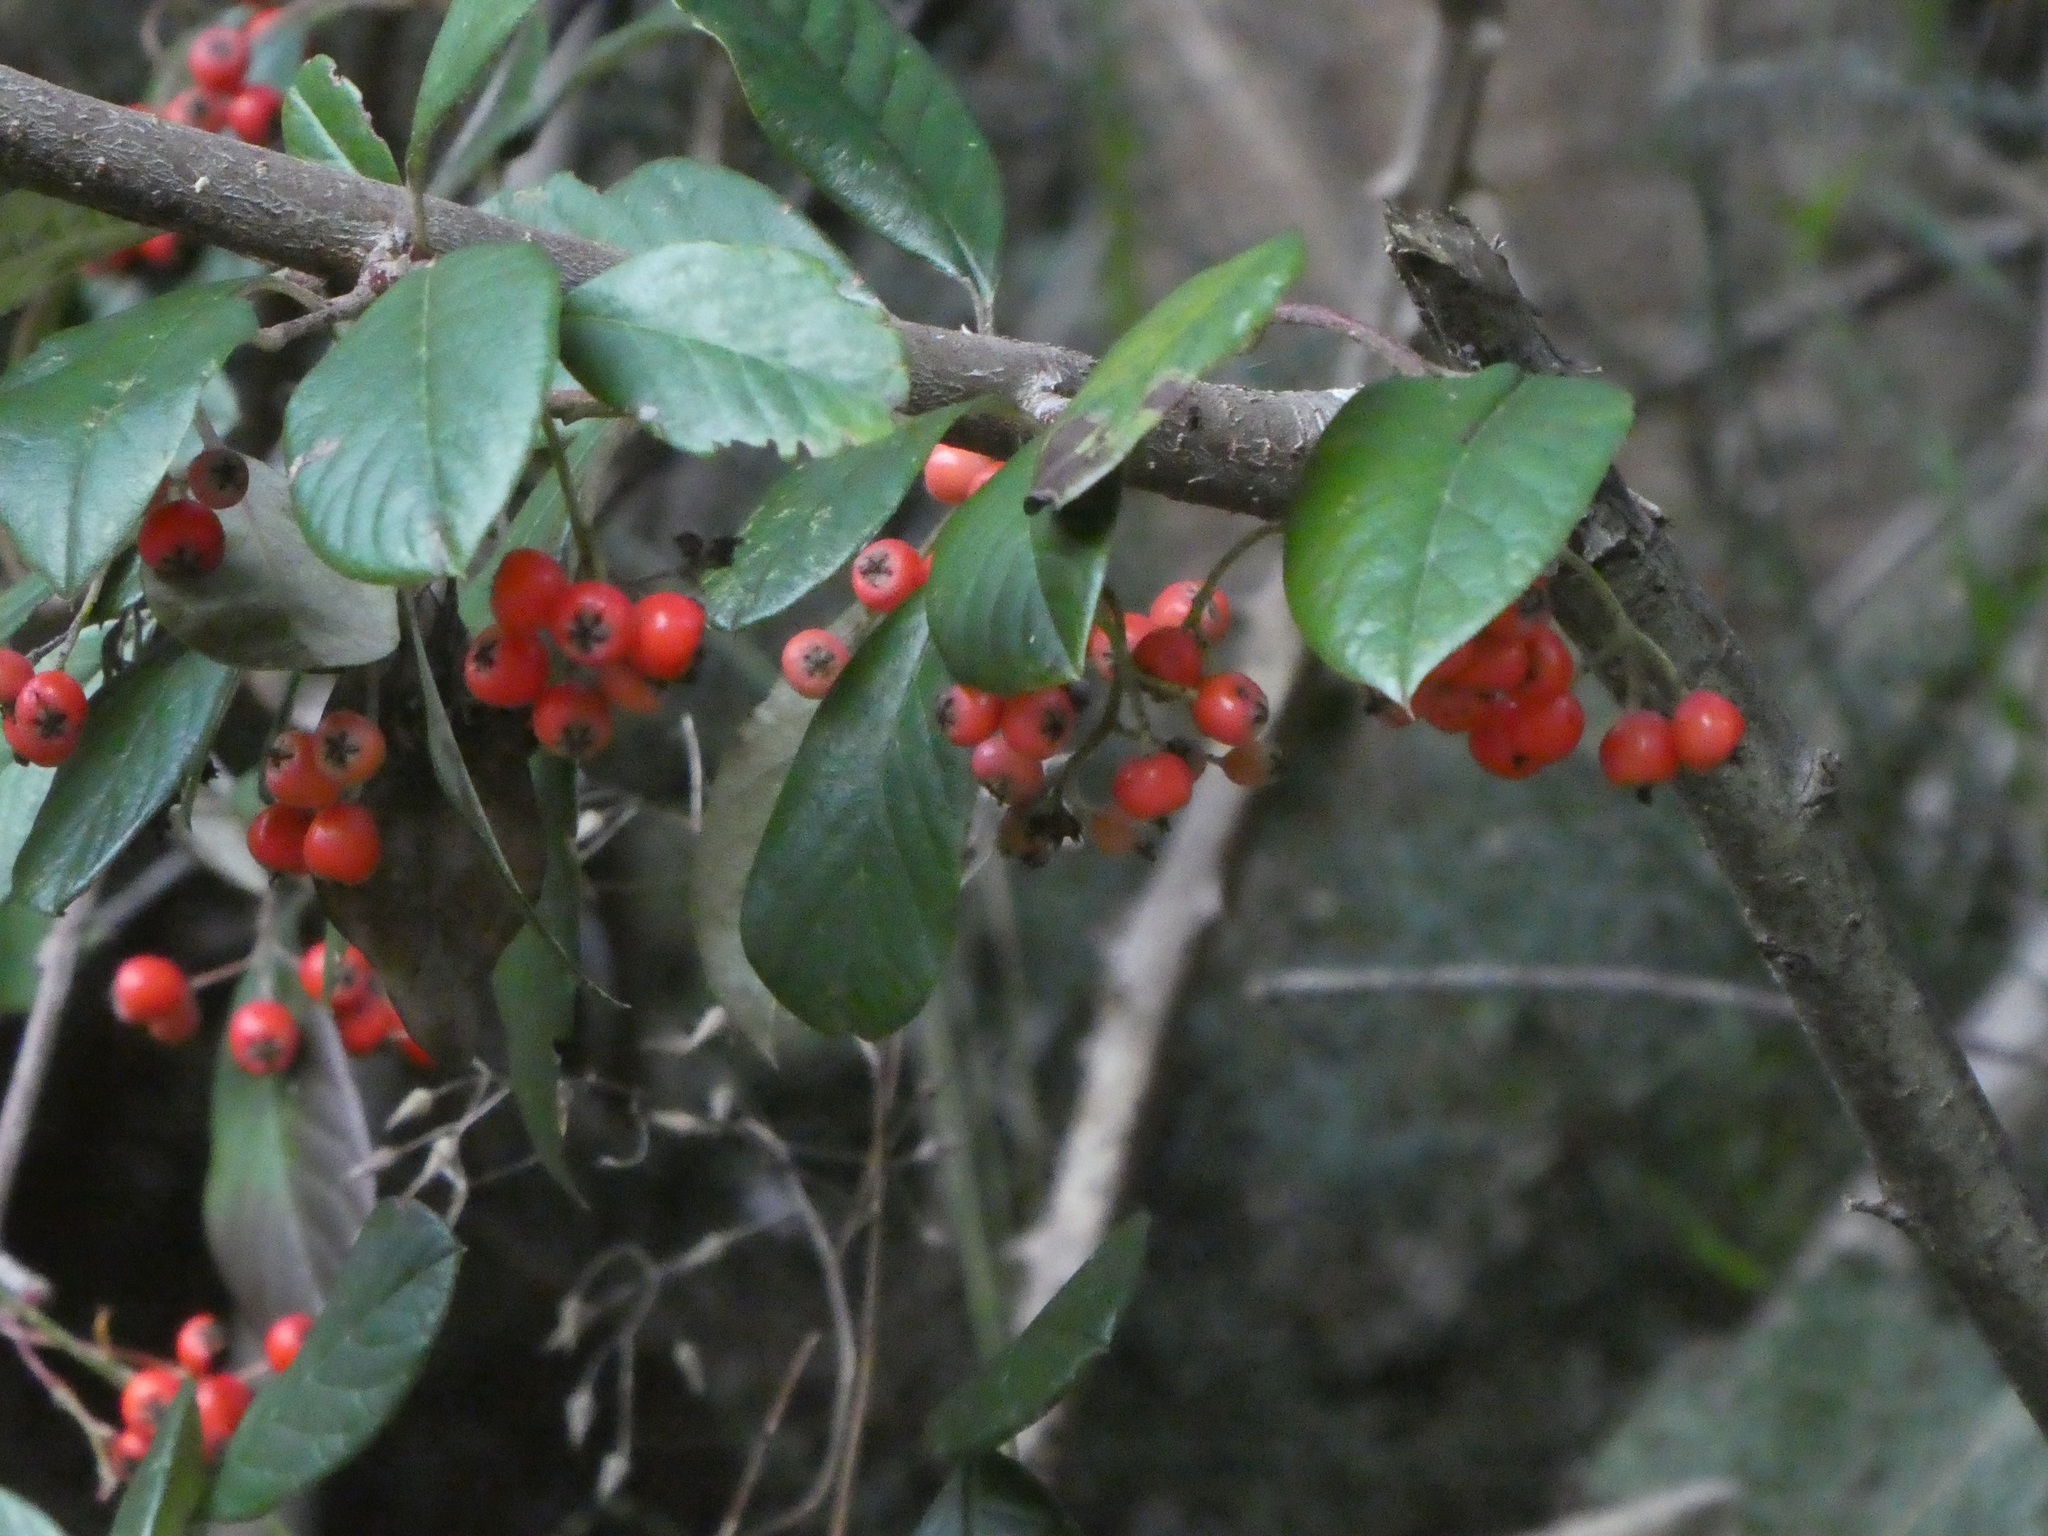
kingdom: Plantae
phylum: Tracheophyta
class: Magnoliopsida
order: Rosales
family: Rosaceae
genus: Cotoneaster
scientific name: Cotoneaster glaucophyllus
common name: Glaucous cotoneaster
